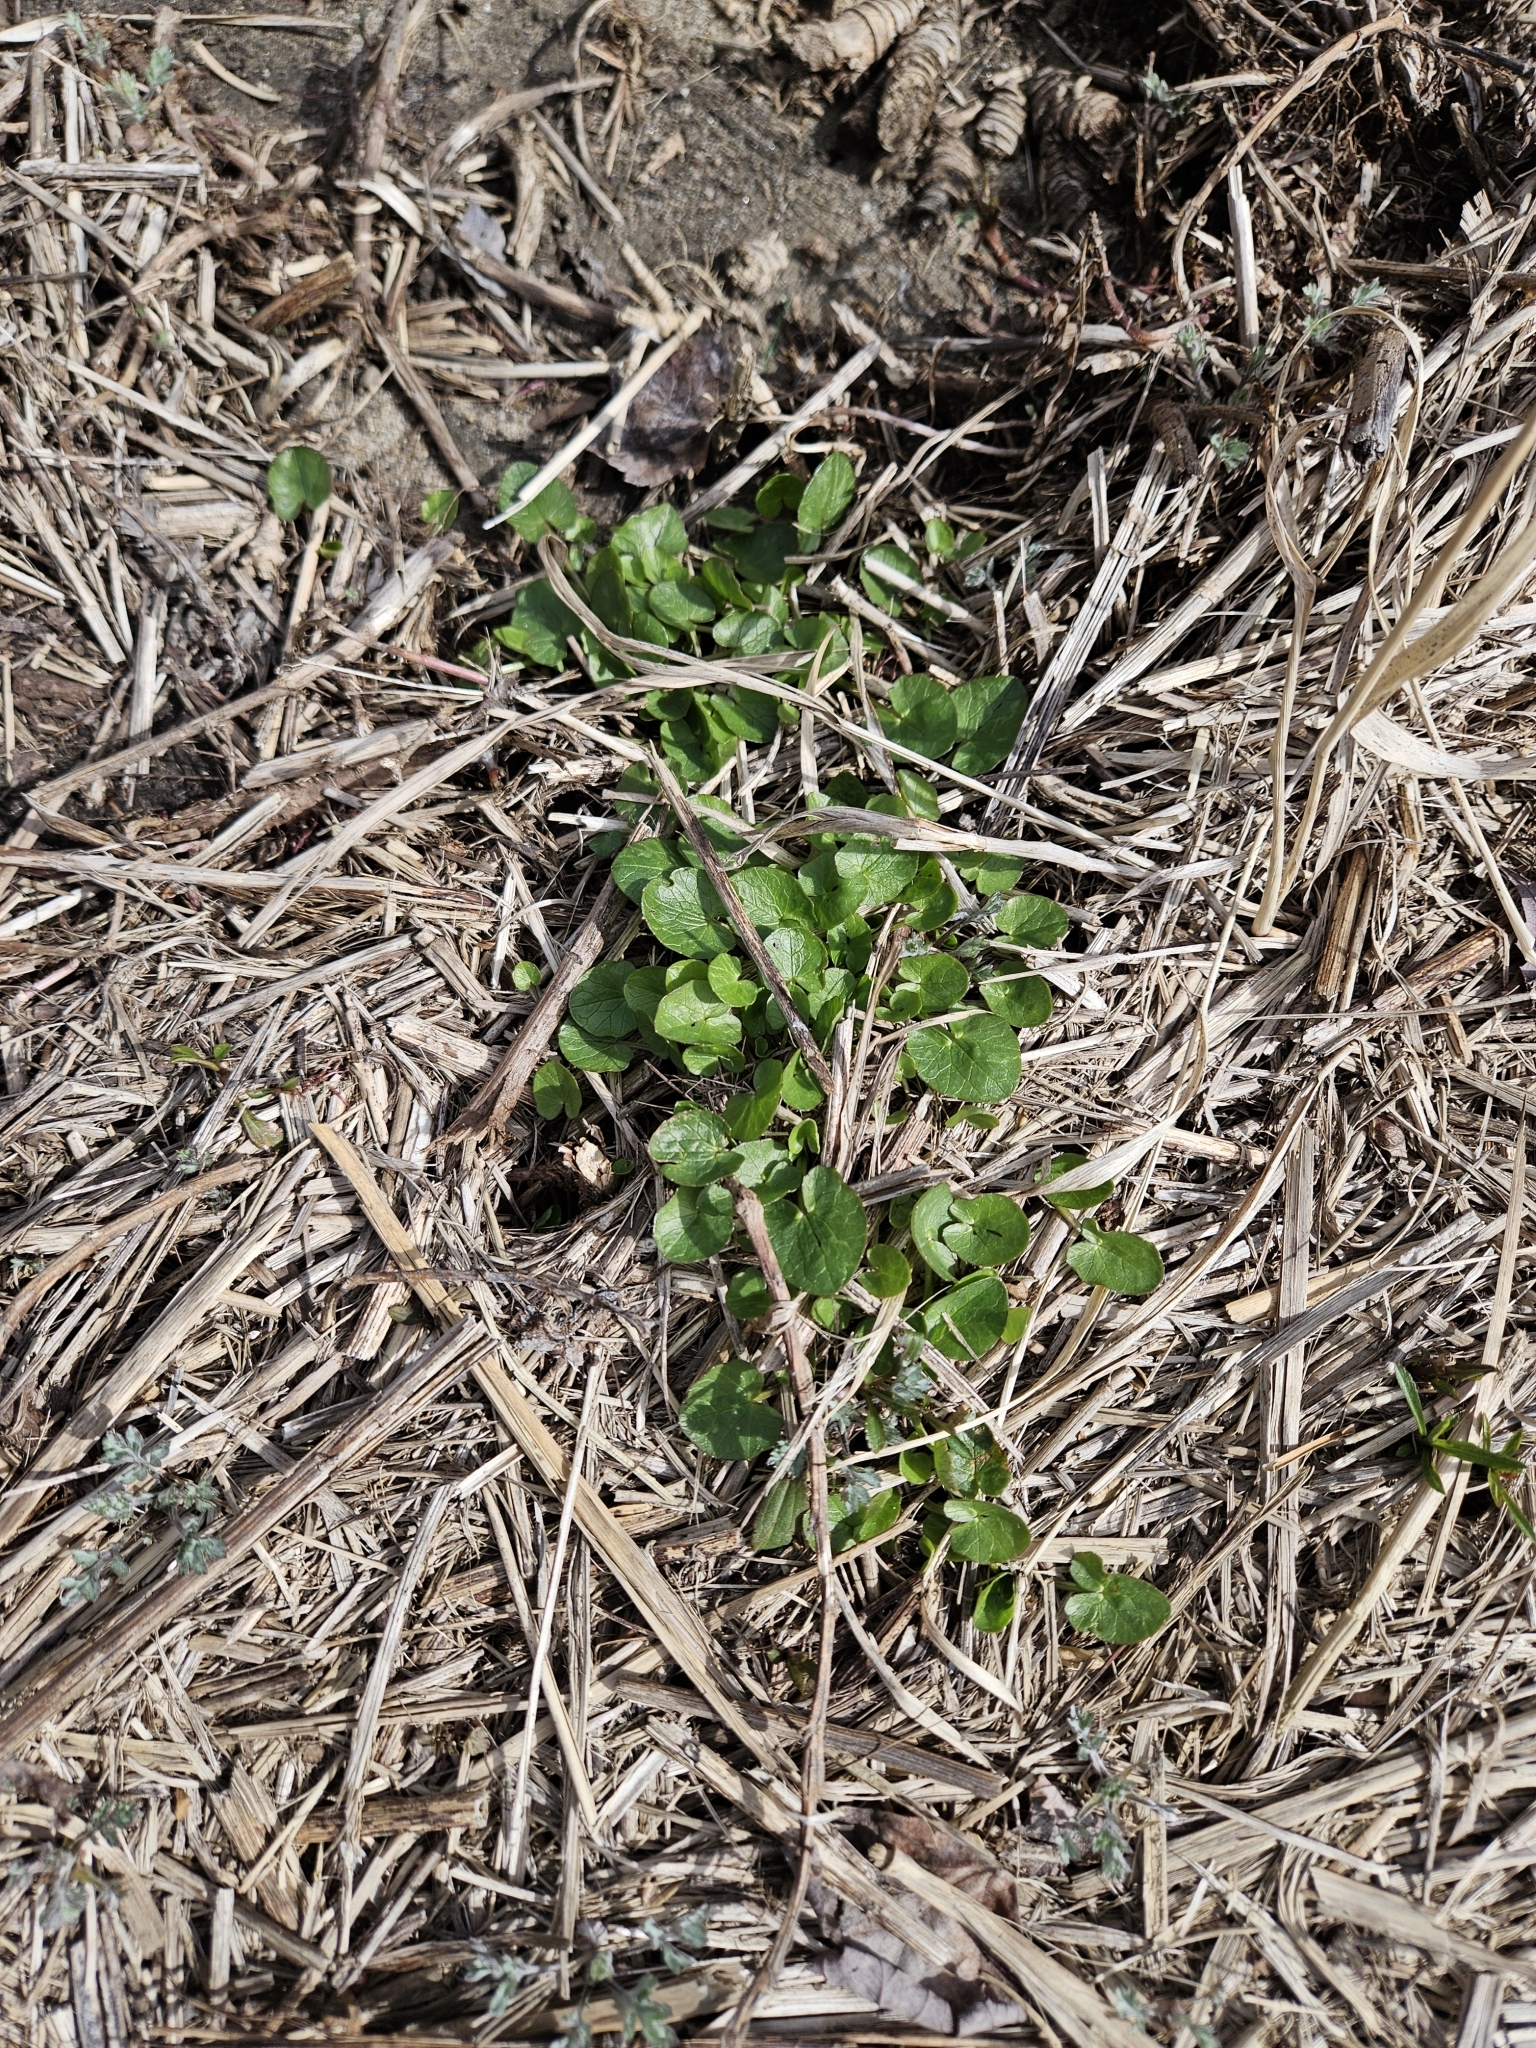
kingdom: Plantae
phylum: Tracheophyta
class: Magnoliopsida
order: Ranunculales
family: Ranunculaceae
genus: Ficaria
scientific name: Ficaria verna
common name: Lesser celandine
